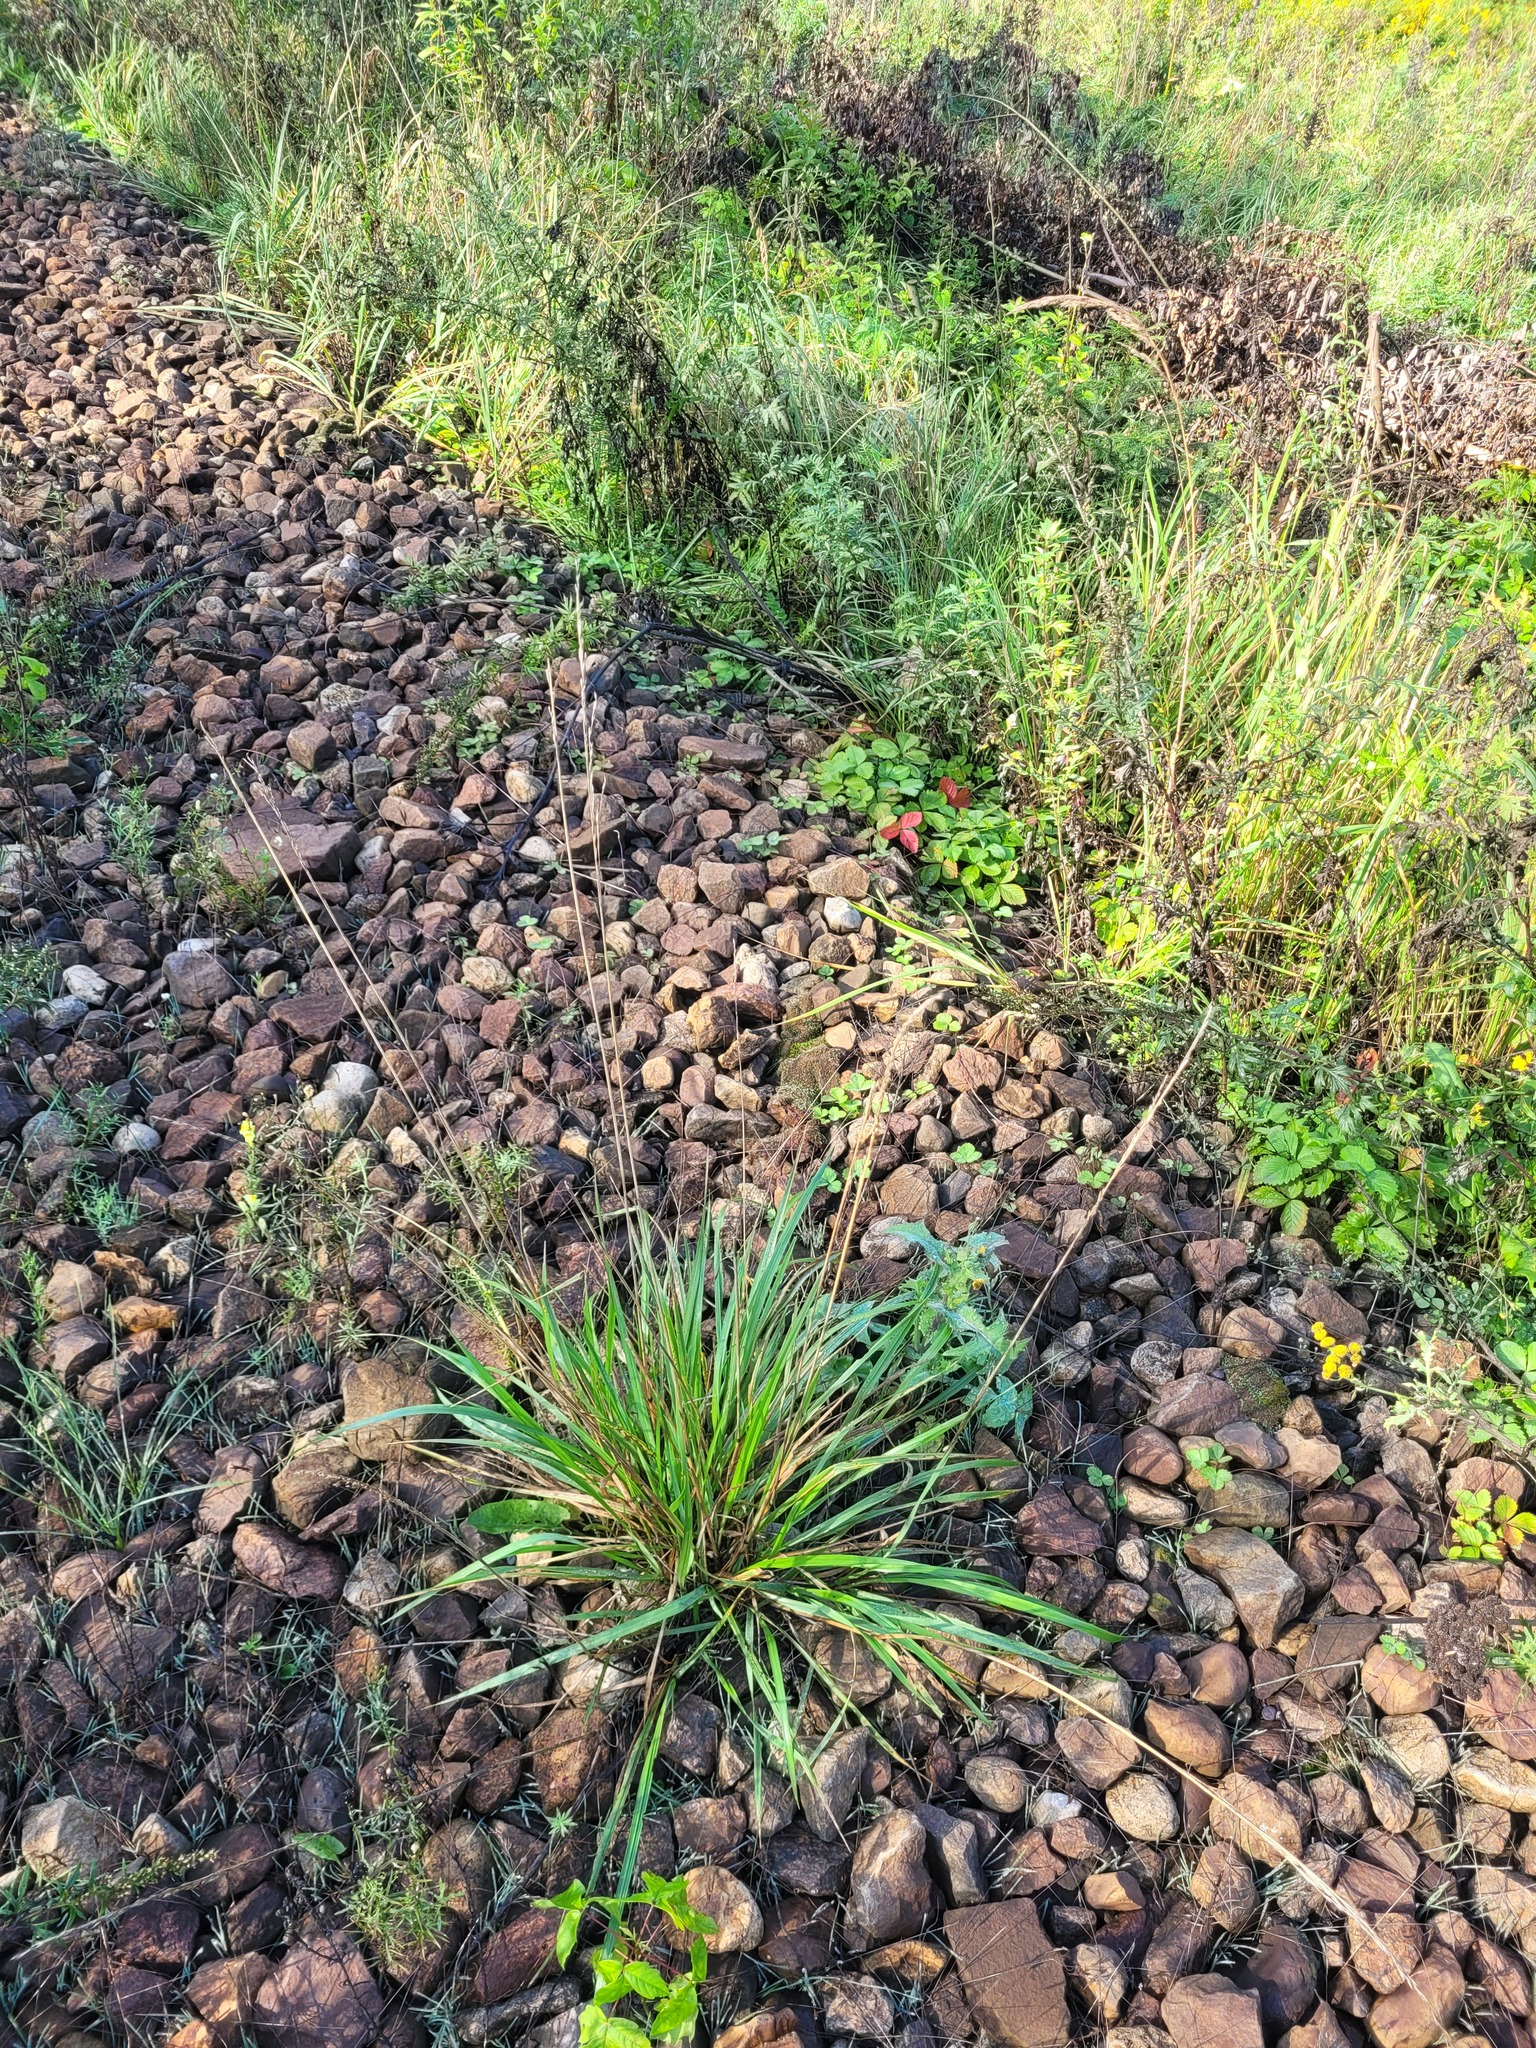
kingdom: Plantae
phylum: Tracheophyta
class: Liliopsida
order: Poales
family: Poaceae
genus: Lolium
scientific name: Lolium arundinaceum
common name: Reed fescue
